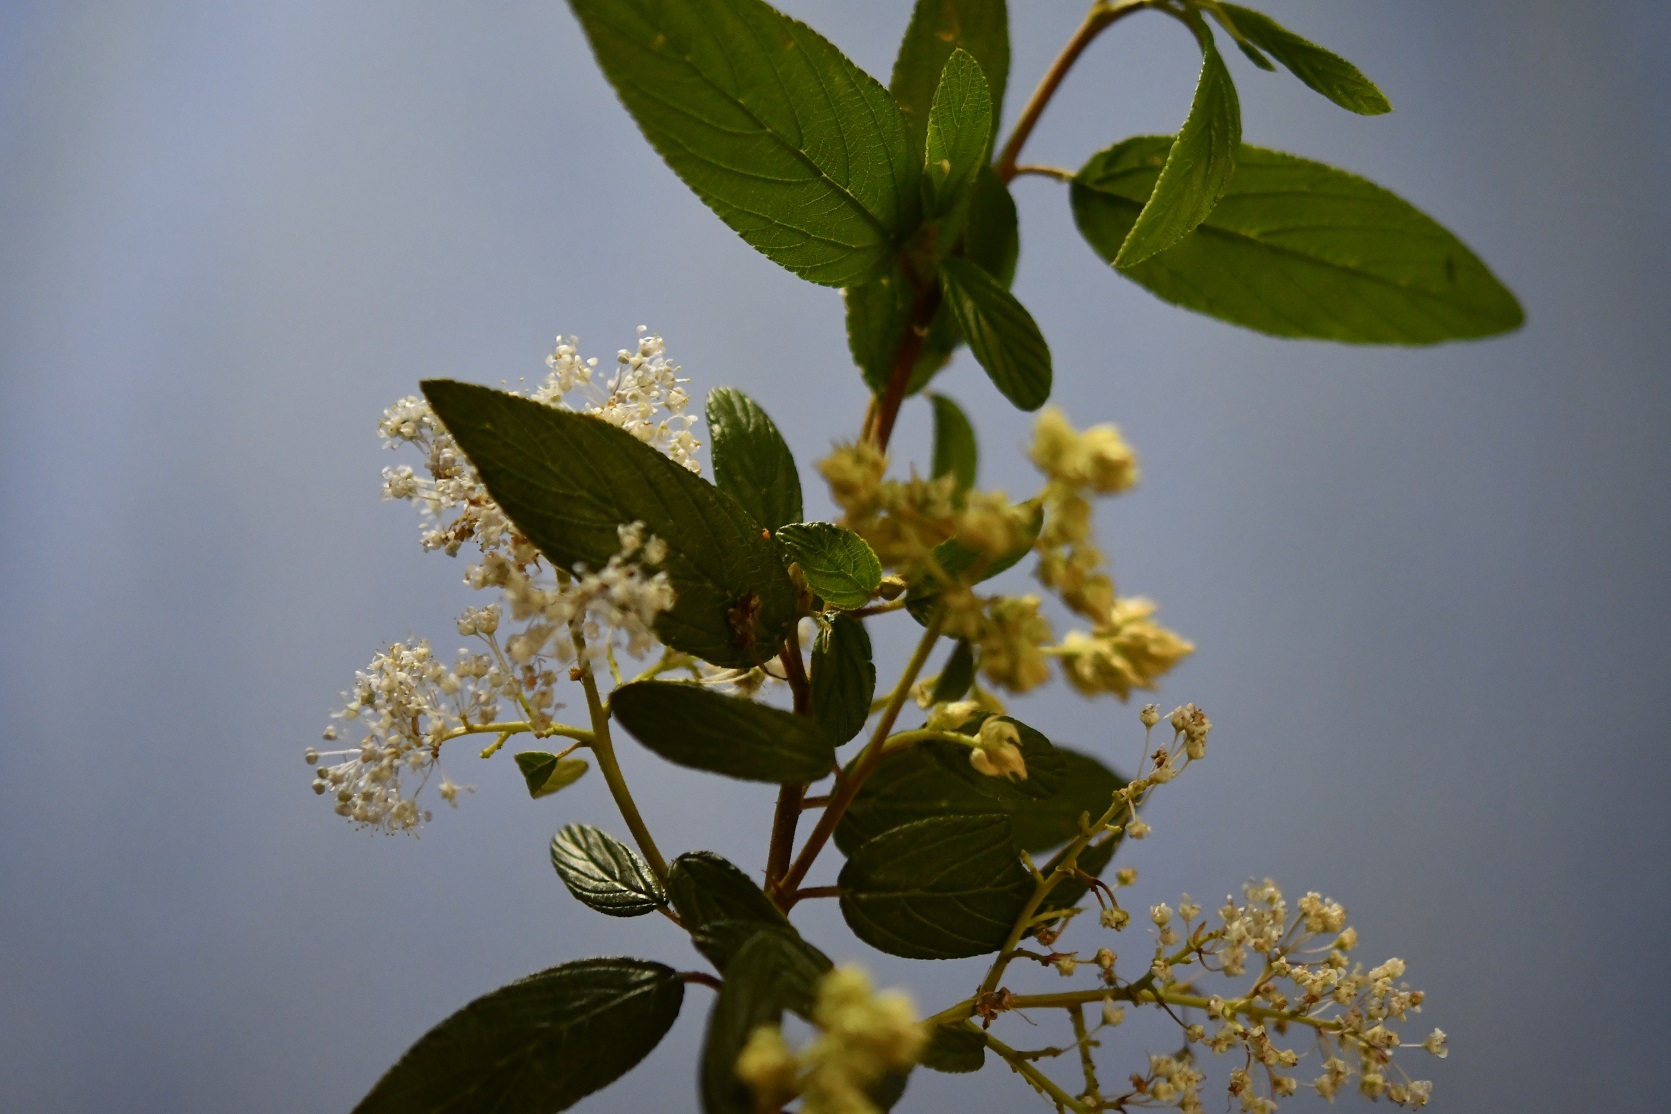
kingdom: Plantae
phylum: Tracheophyta
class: Magnoliopsida
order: Rosales
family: Rhamnaceae
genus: Ceanothus
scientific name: Ceanothus caeruleus
